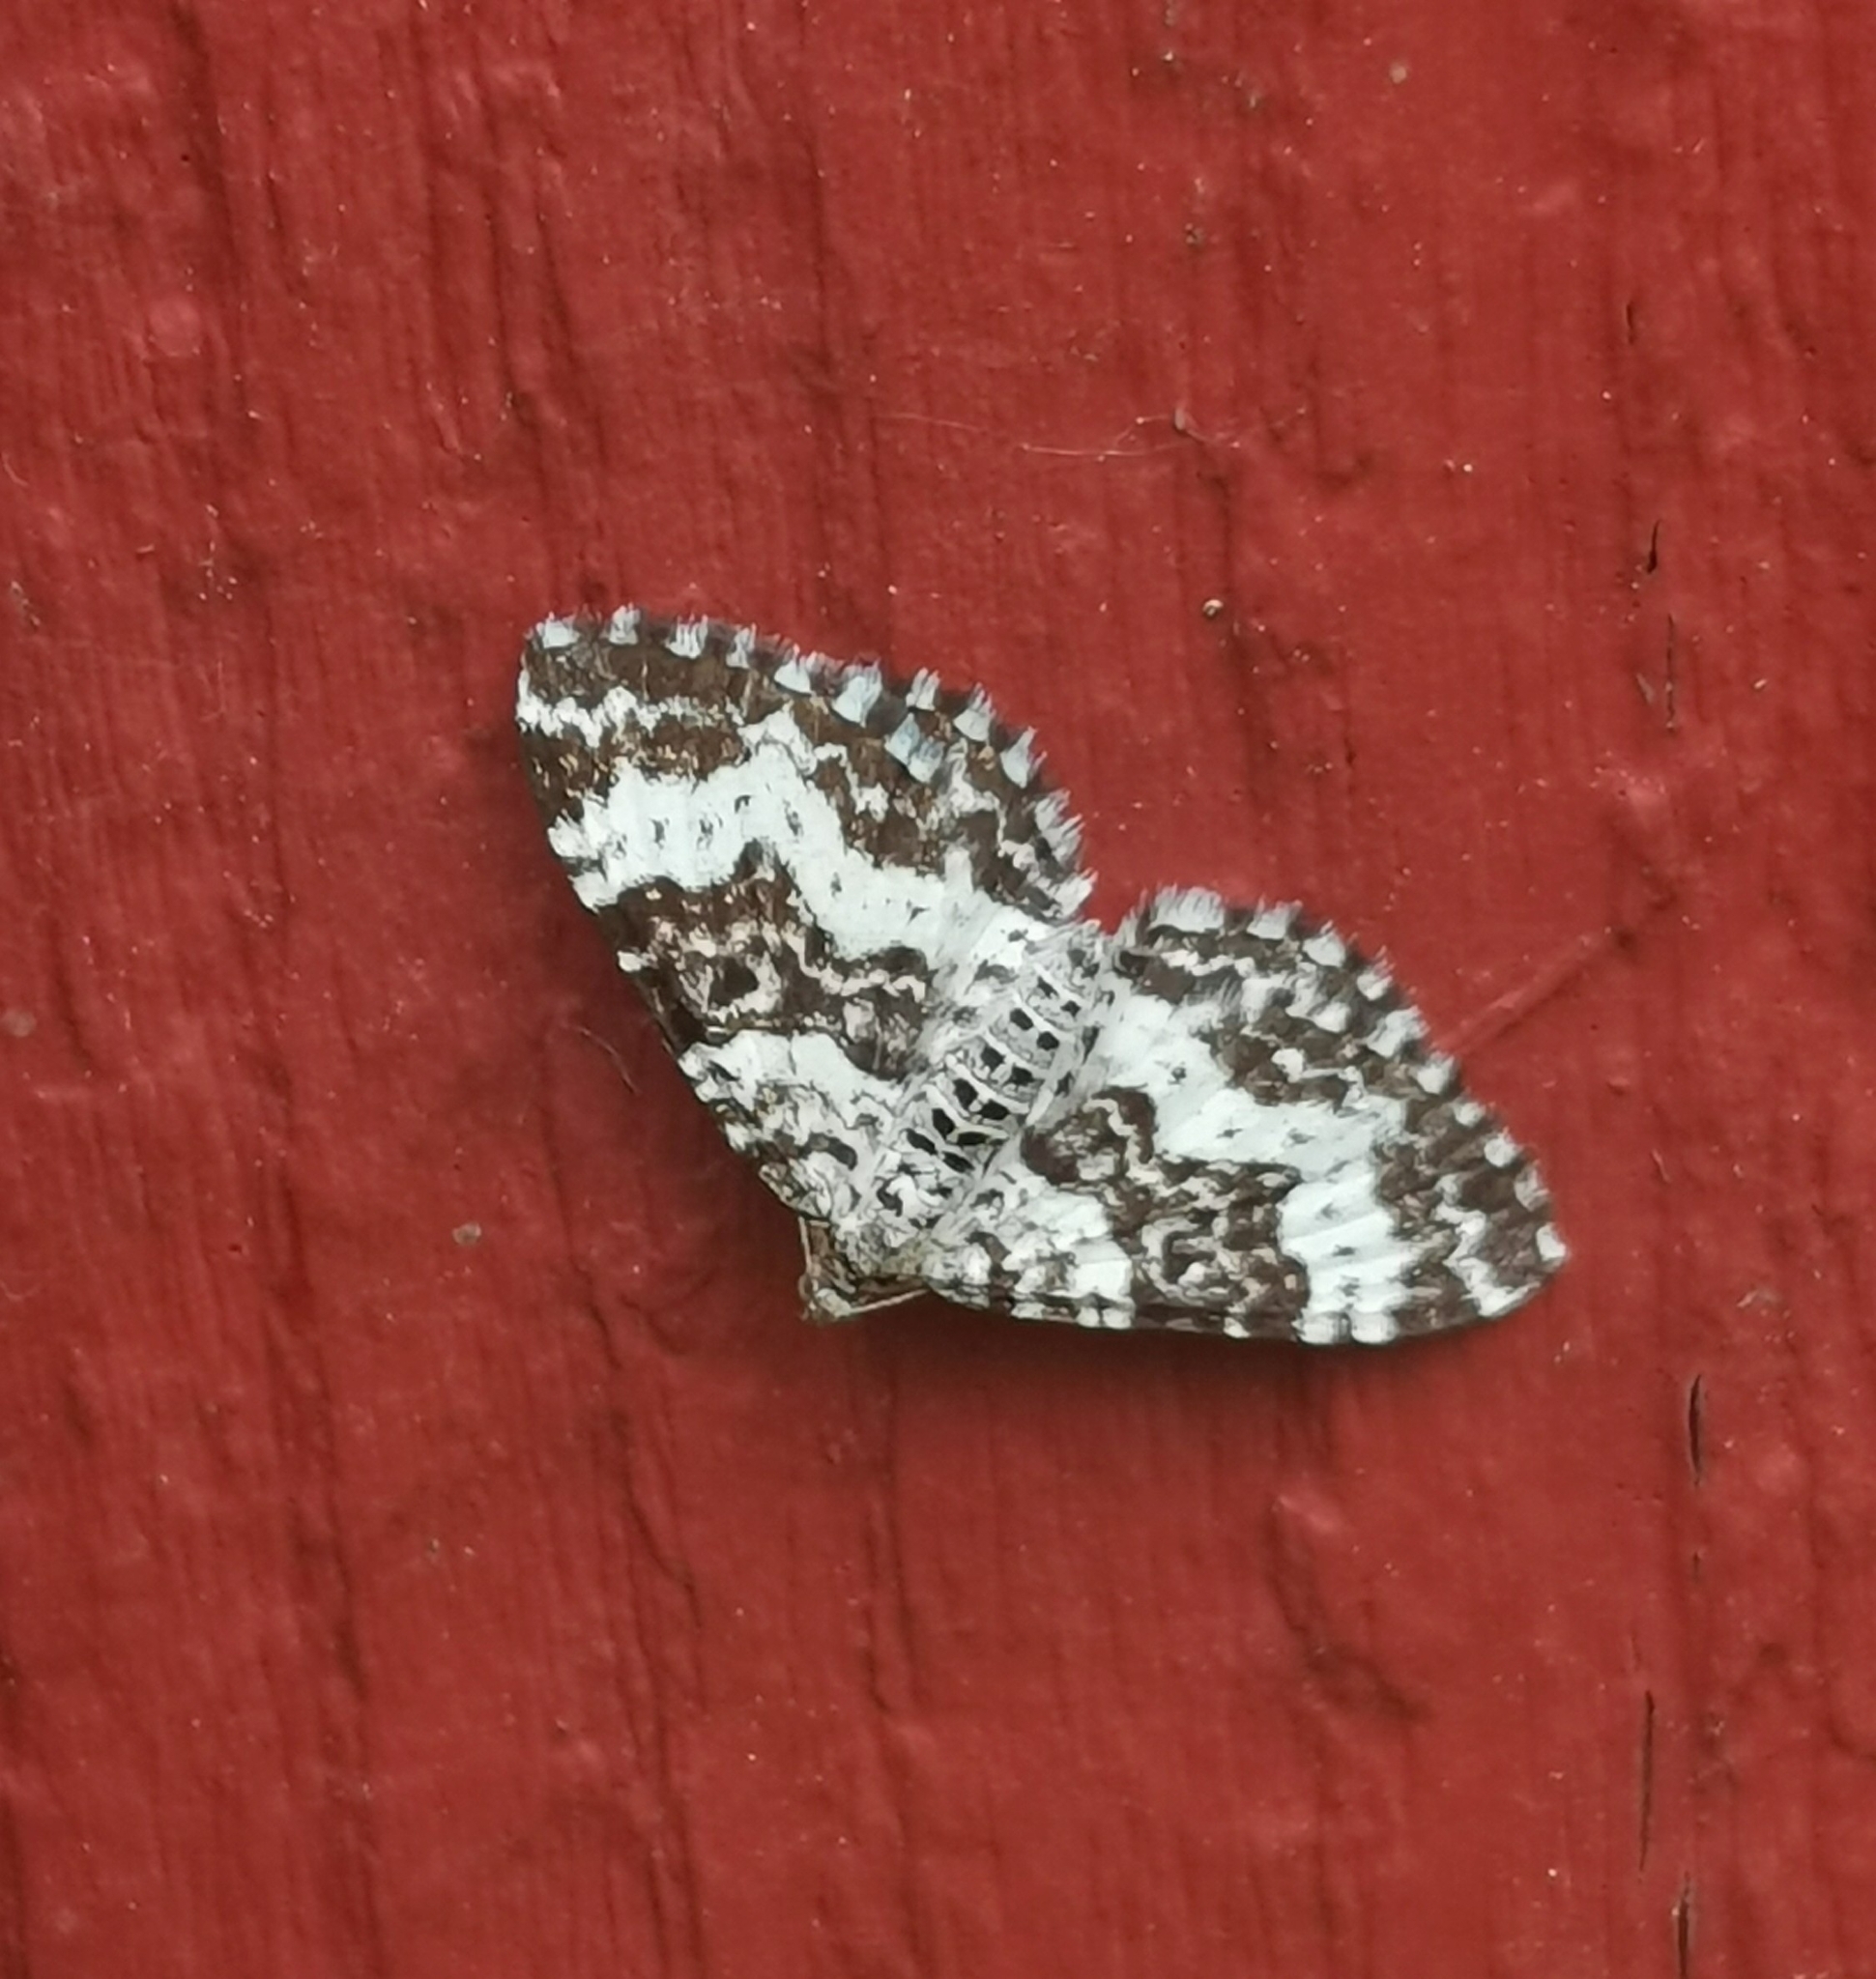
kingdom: Animalia
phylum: Arthropoda
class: Insecta
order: Lepidoptera
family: Geometridae
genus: Epirrhoe
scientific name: Epirrhoe tristata
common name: Small argent & sable
